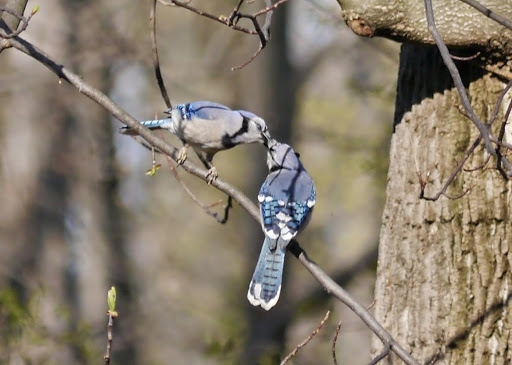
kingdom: Animalia
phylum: Chordata
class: Aves
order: Passeriformes
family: Corvidae
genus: Cyanocitta
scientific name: Cyanocitta cristata
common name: Blue jay
